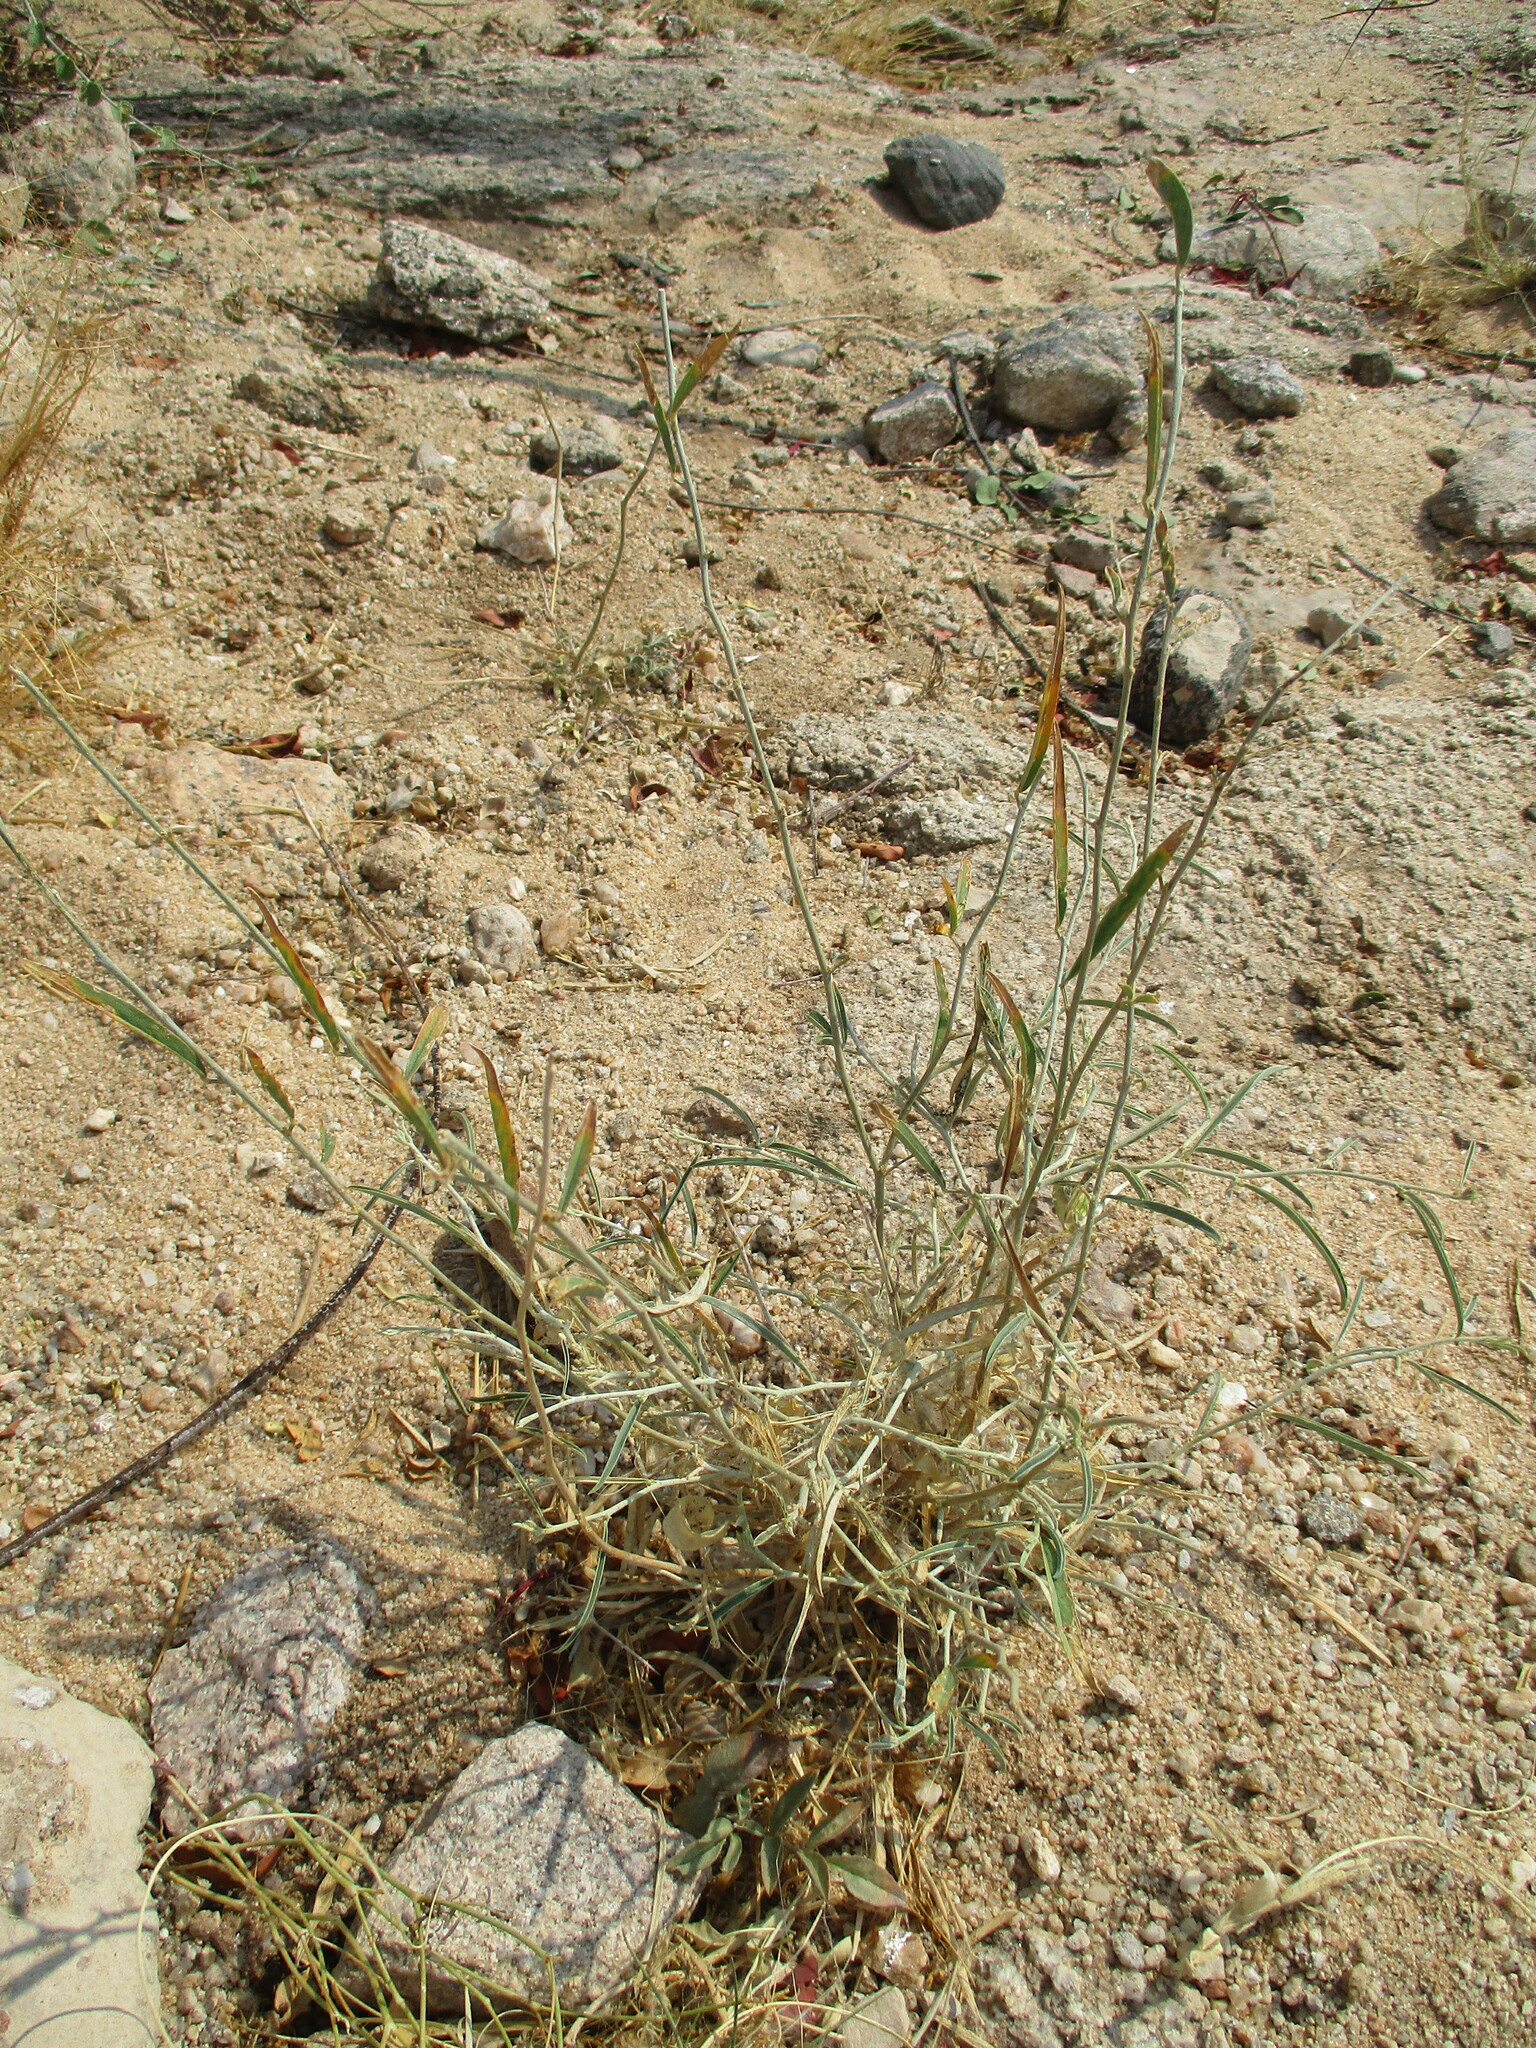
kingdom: Plantae
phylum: Tracheophyta
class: Magnoliopsida
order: Fabales
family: Fabaceae
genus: Ptycholobium
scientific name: Ptycholobium biflorum
